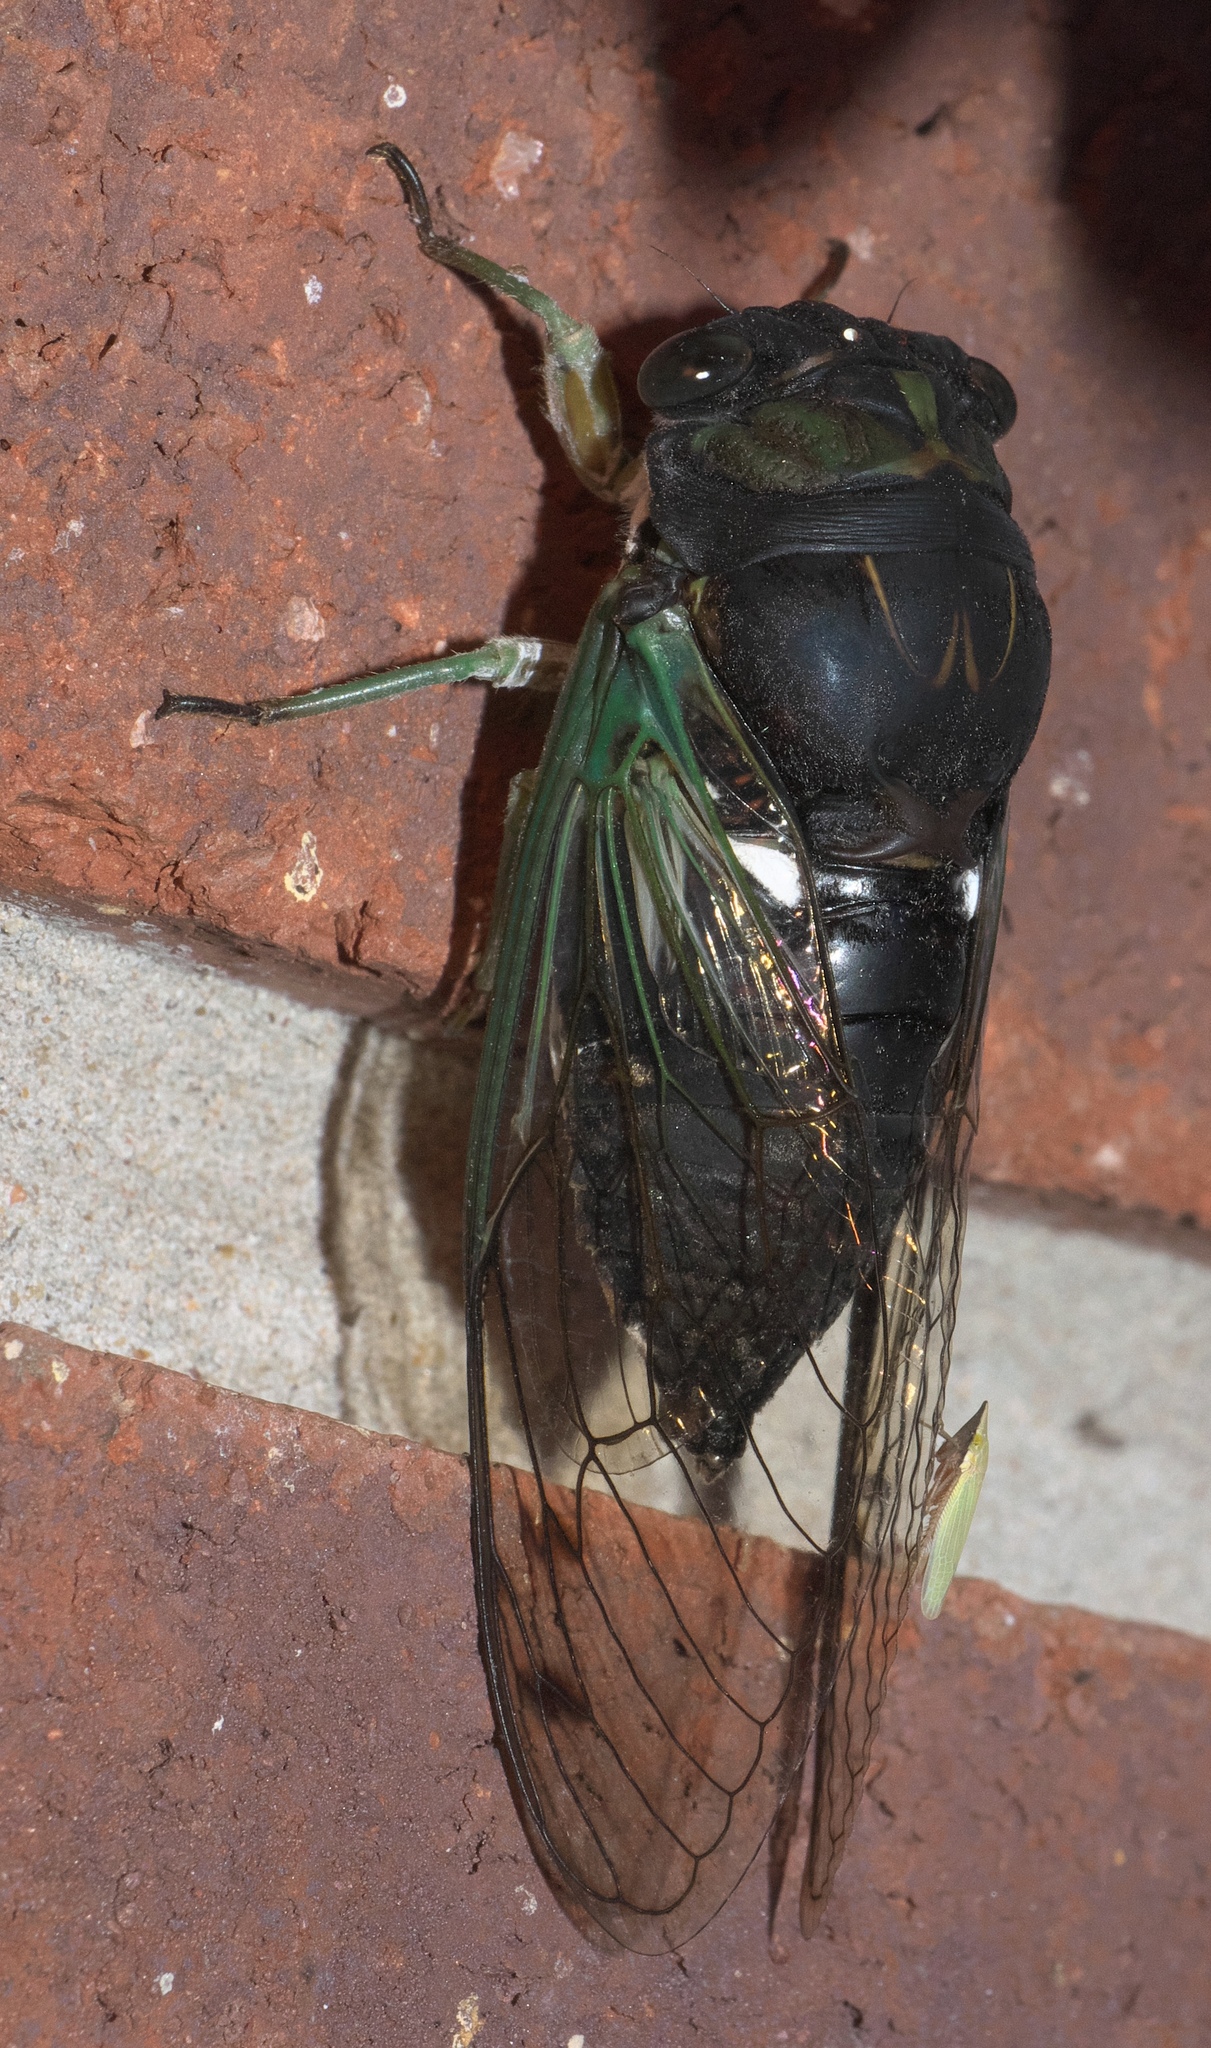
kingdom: Animalia
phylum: Arthropoda
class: Insecta
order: Hemiptera
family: Cicadidae
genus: Neotibicen
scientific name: Neotibicen tibicen
